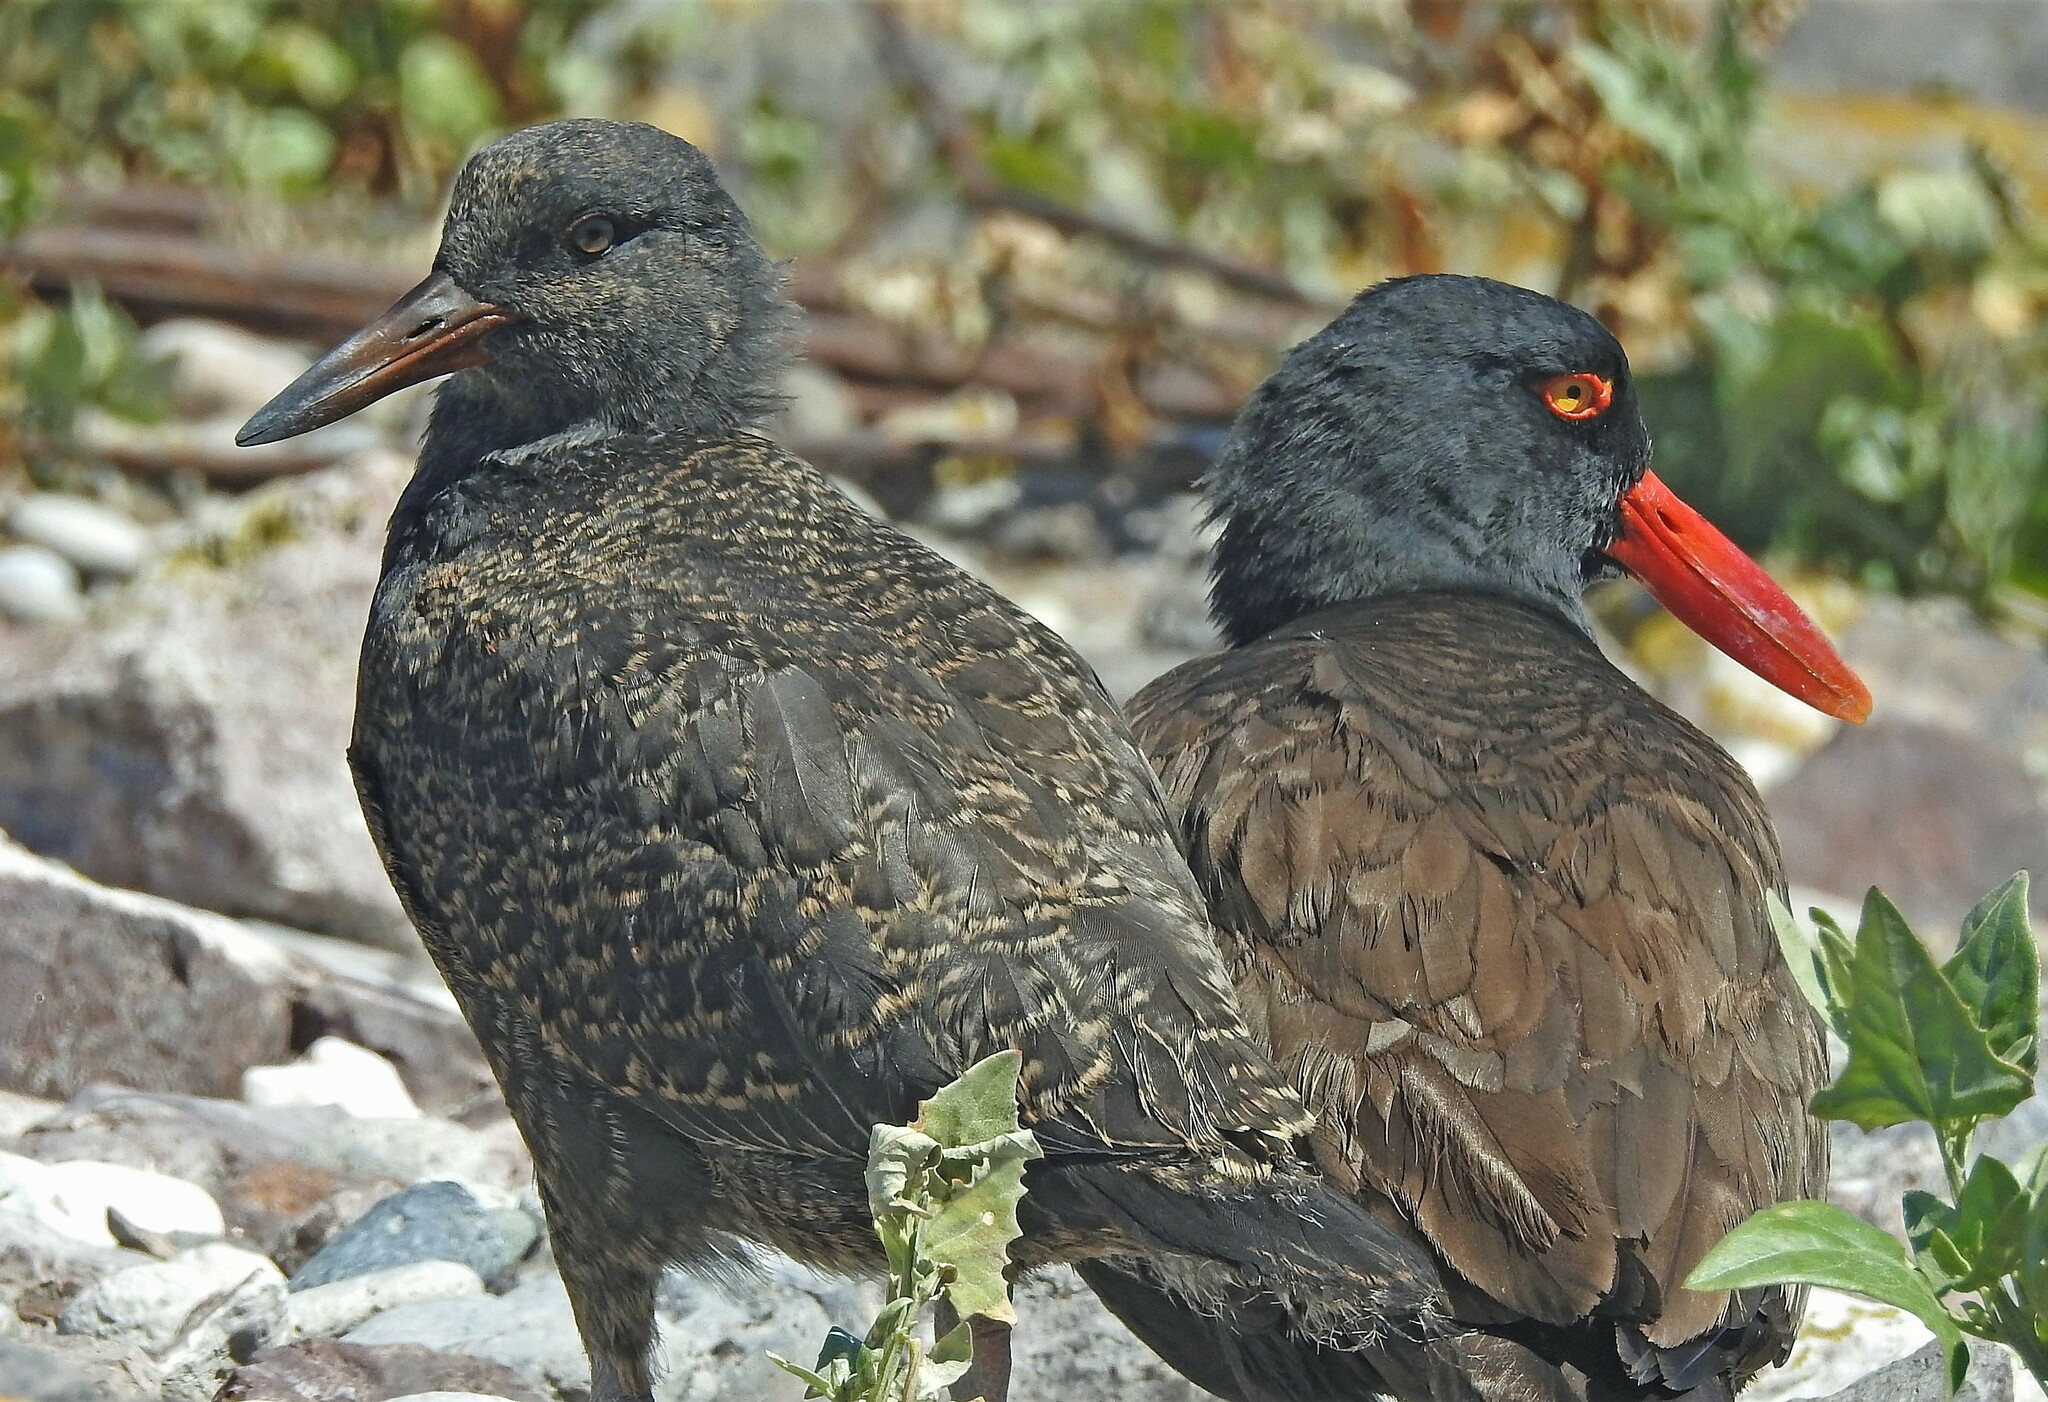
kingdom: Animalia
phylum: Chordata
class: Aves
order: Charadriiformes
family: Haematopodidae
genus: Haematopus
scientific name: Haematopus ater
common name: Blackish oystercatcher
